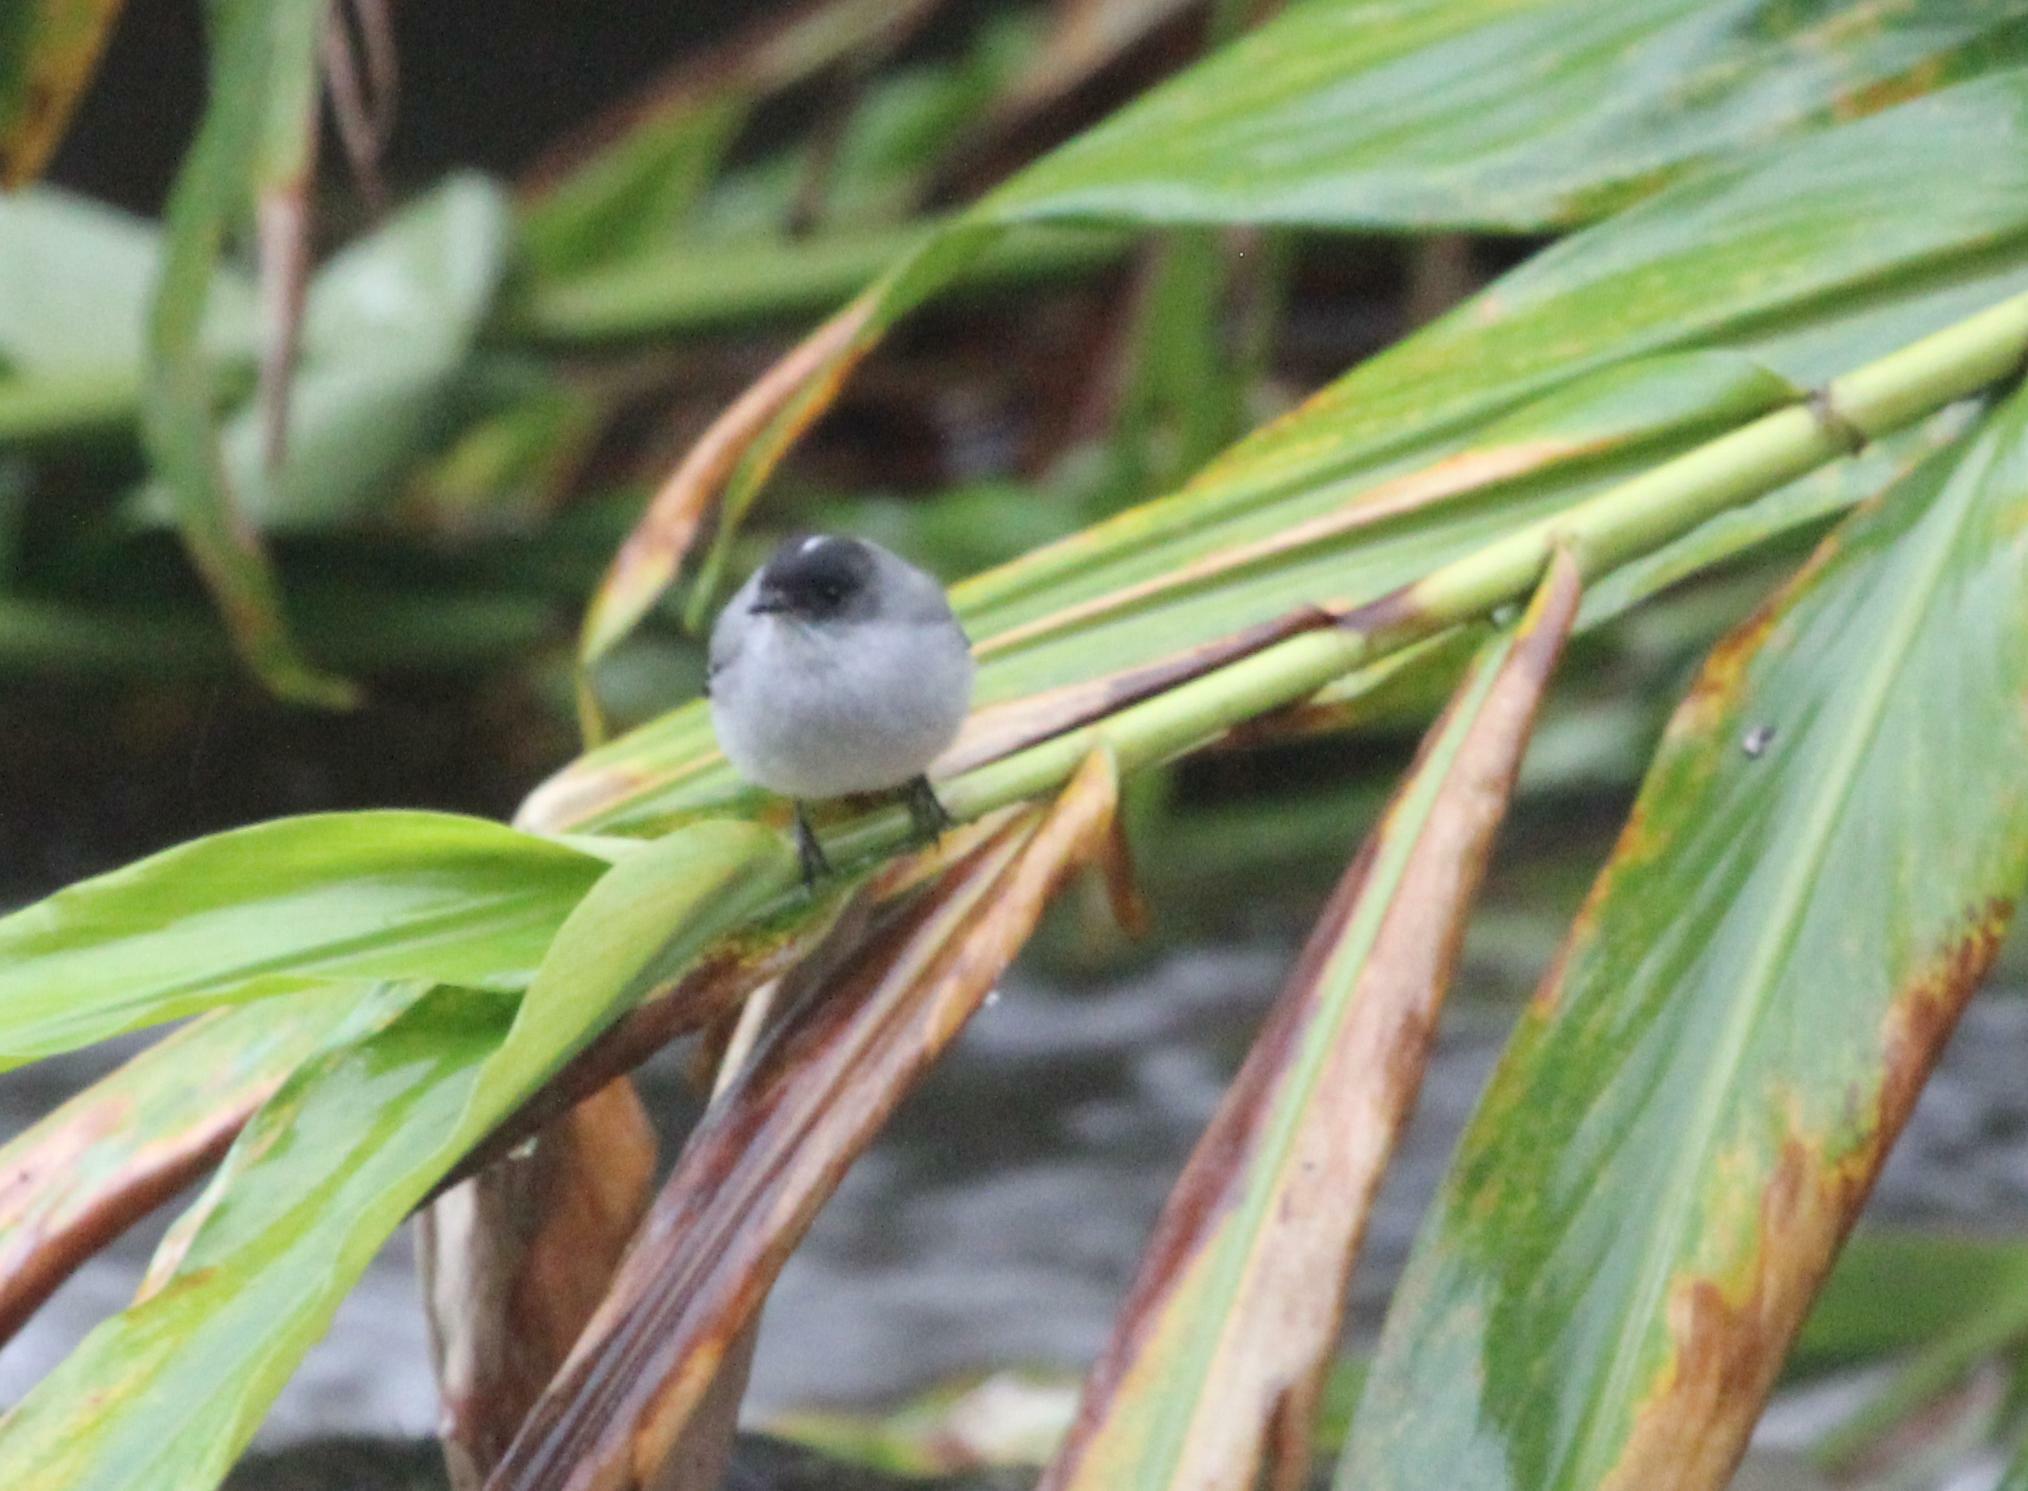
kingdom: Animalia
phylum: Chordata
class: Aves
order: Passeriformes
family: Tyrannidae
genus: Serpophaga
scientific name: Serpophaga cinerea
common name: Torrent tyrannulet
